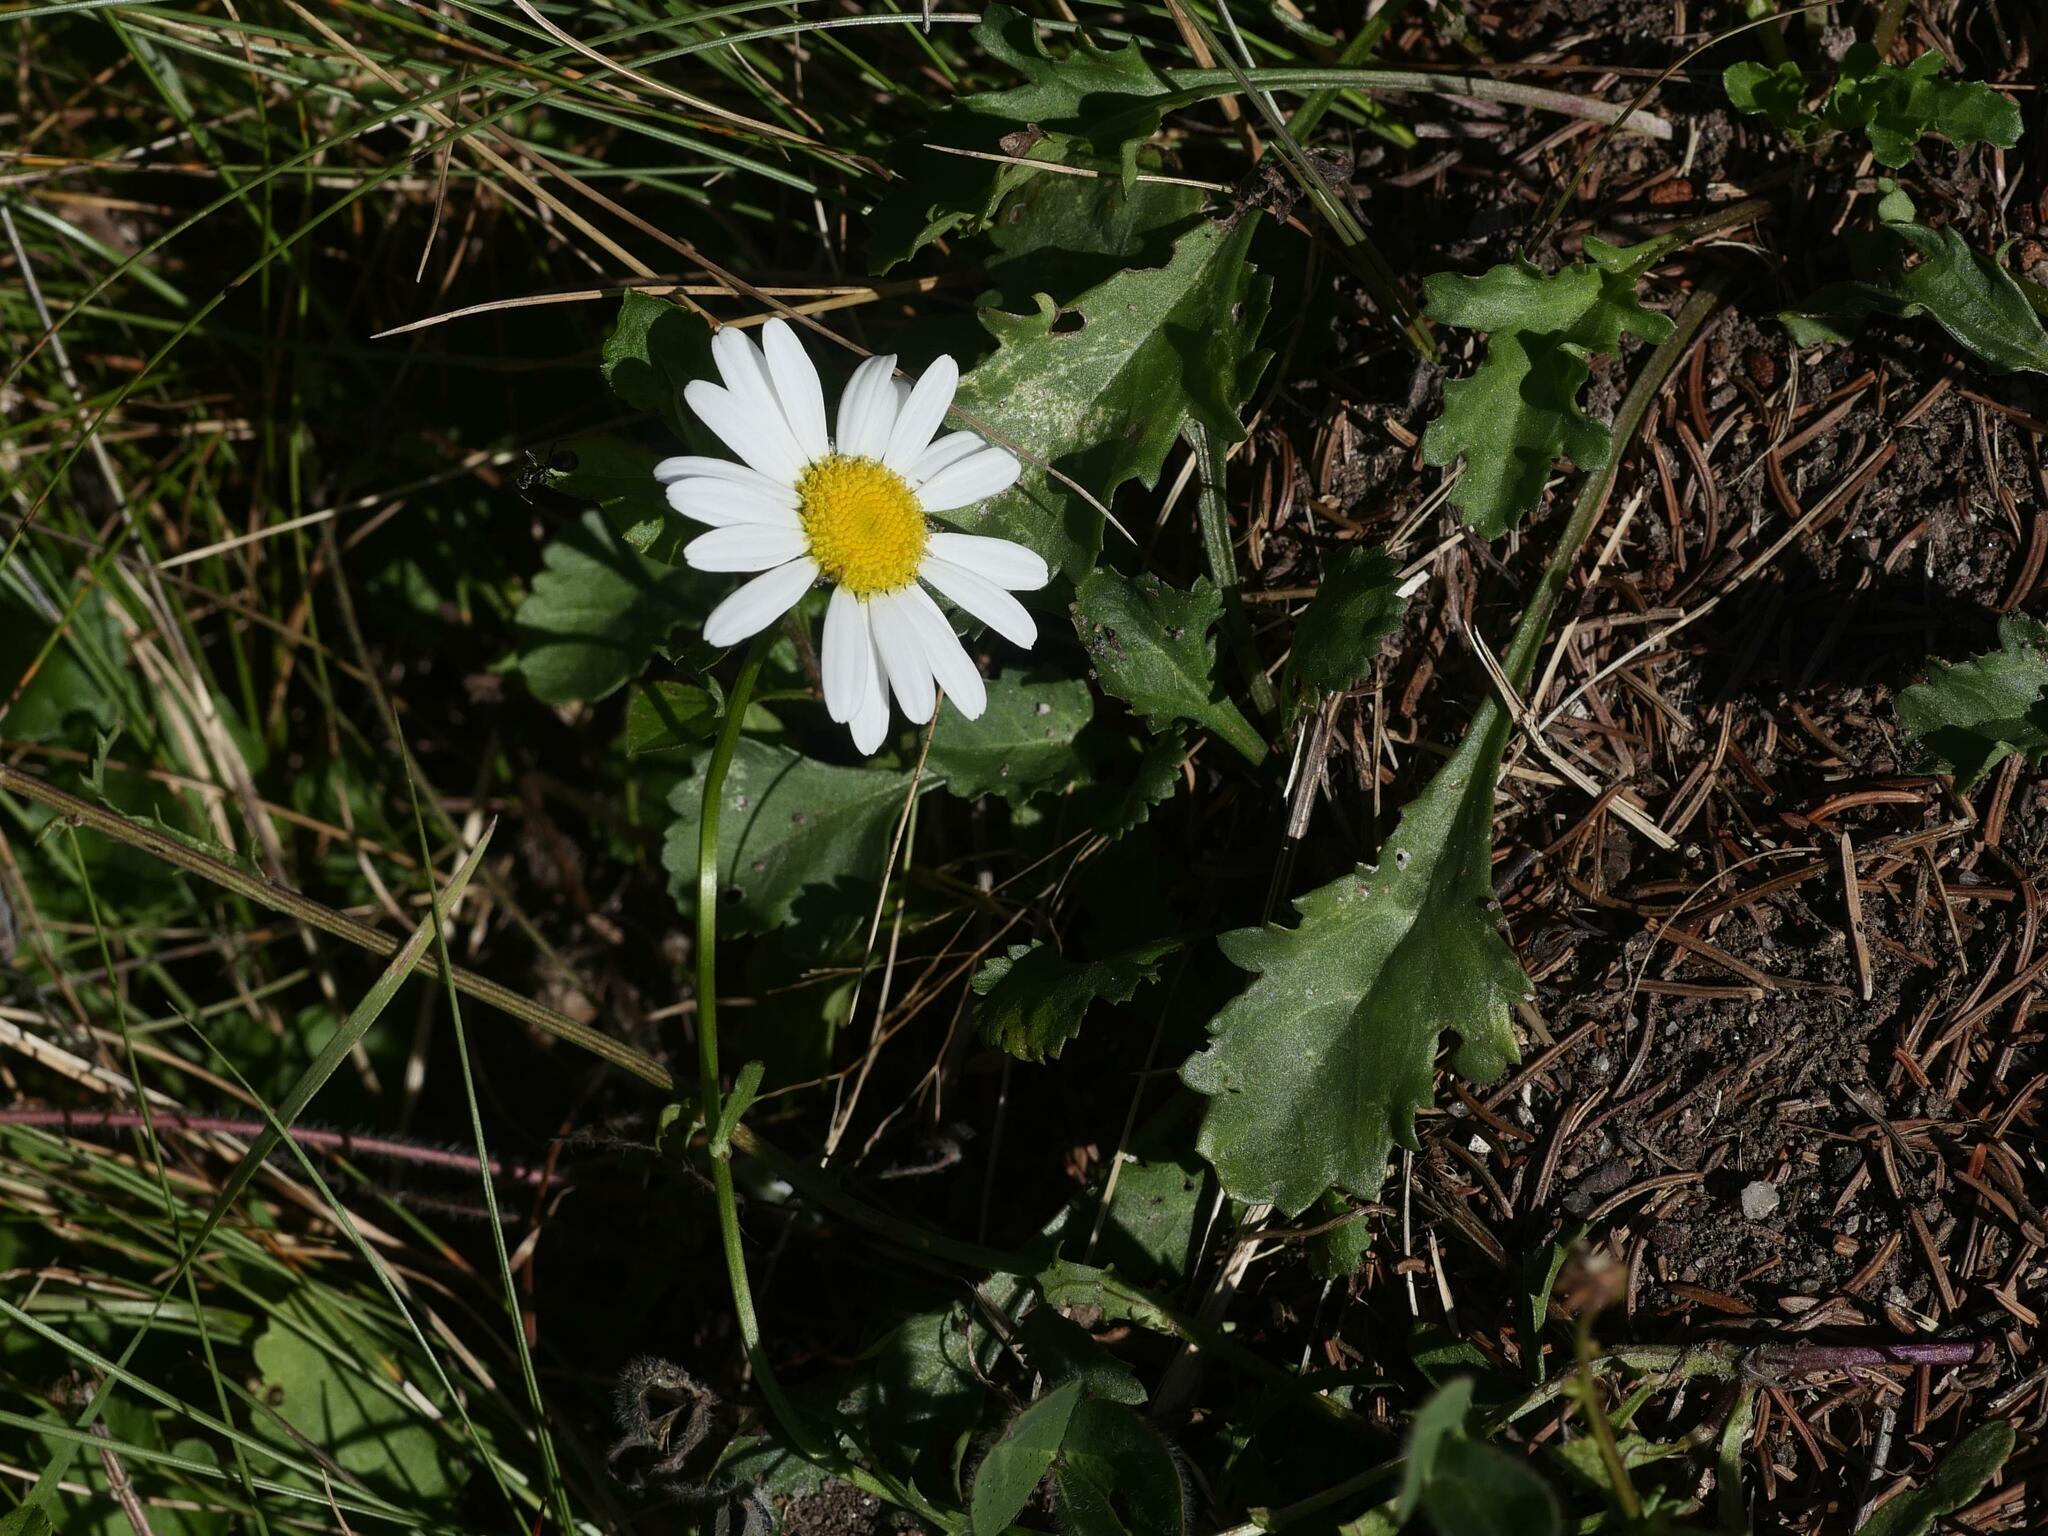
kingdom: Plantae
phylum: Tracheophyta
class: Magnoliopsida
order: Asterales
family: Asteraceae
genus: Leucanthemum
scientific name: Leucanthemum vulgare
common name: Oxeye daisy
